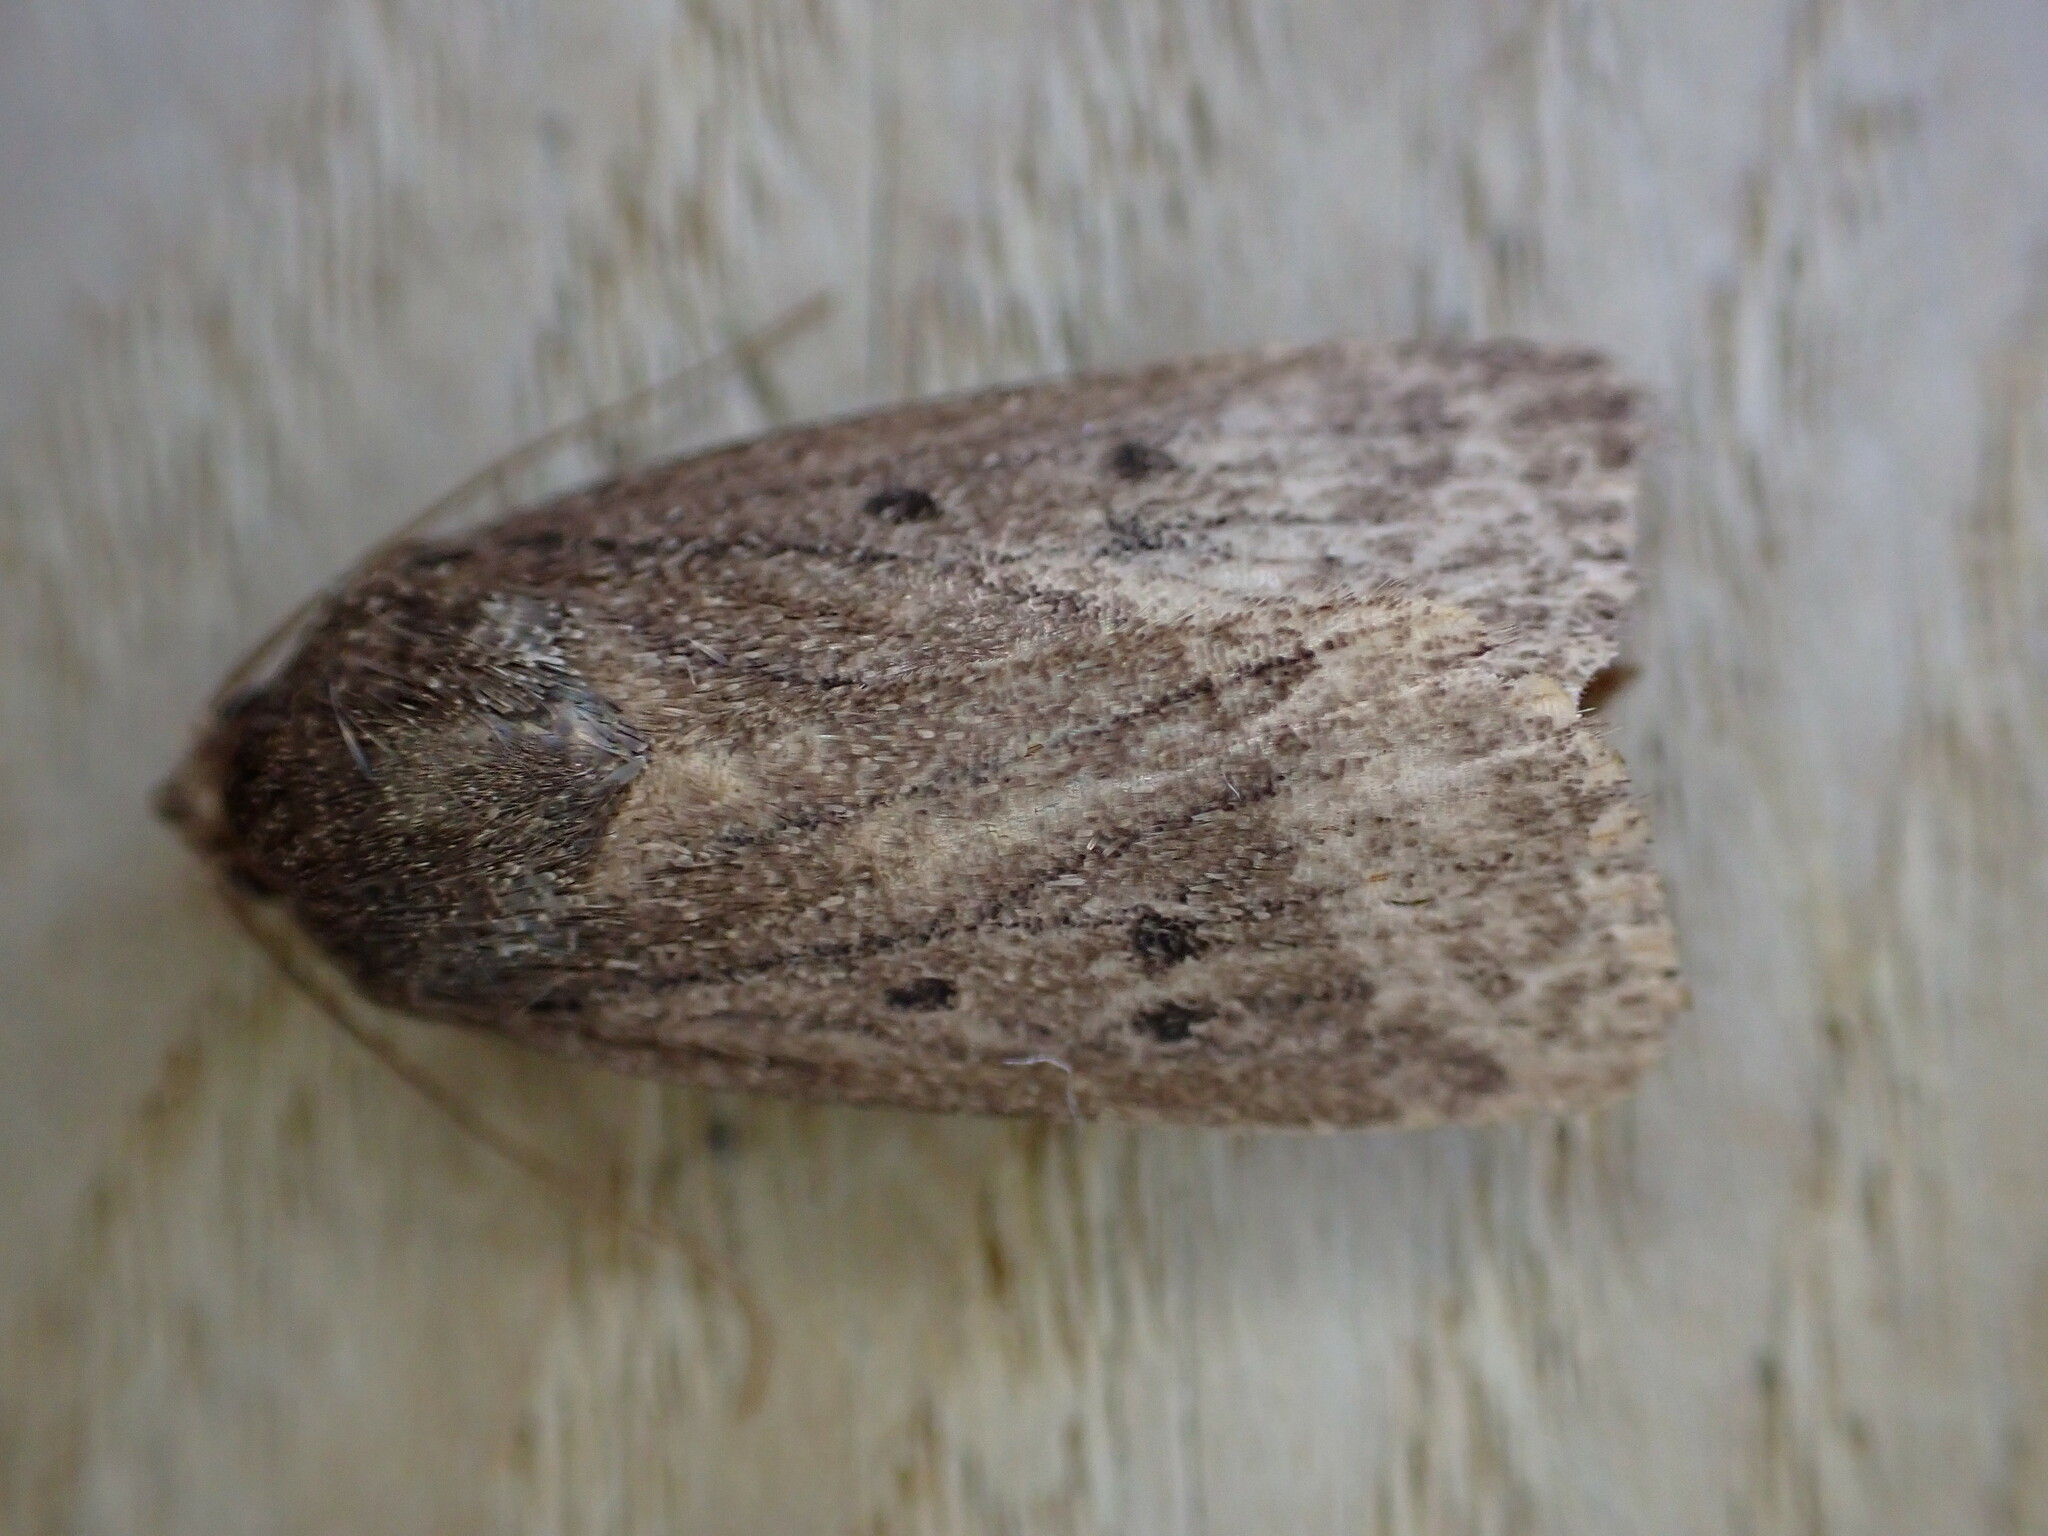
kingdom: Animalia
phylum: Arthropoda
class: Insecta
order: Lepidoptera
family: Noctuidae
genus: Amphipyra
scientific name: Amphipyra tragopoginis
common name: Mouse moth
